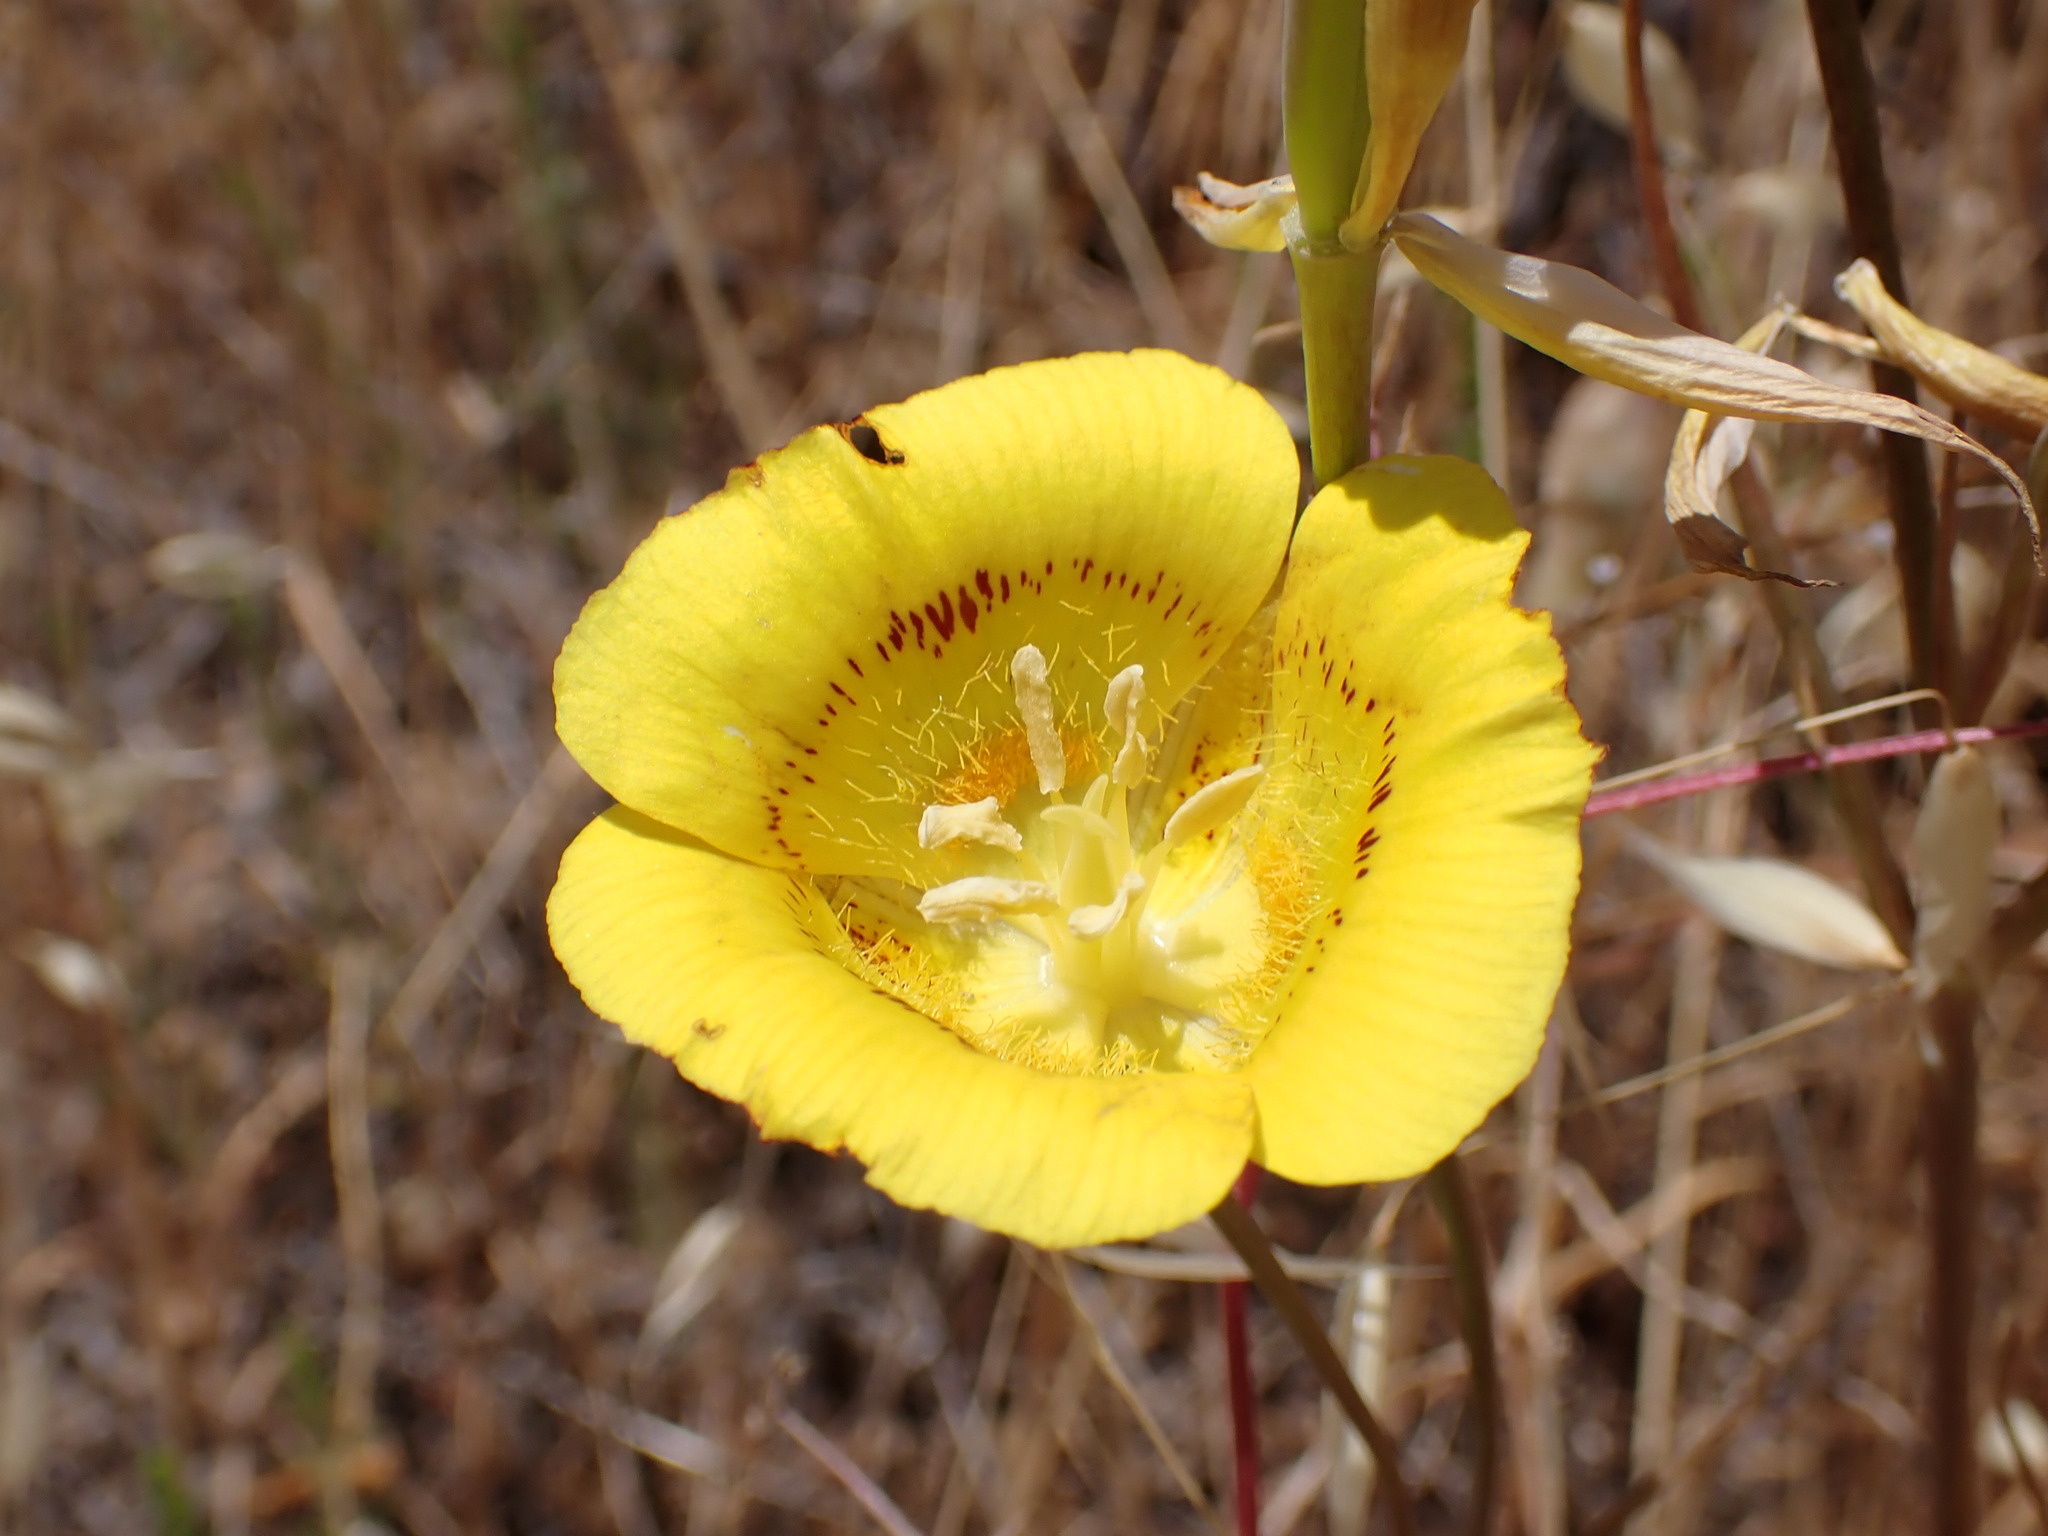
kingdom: Plantae
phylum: Tracheophyta
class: Liliopsida
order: Liliales
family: Liliaceae
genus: Calochortus
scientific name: Calochortus luteus
